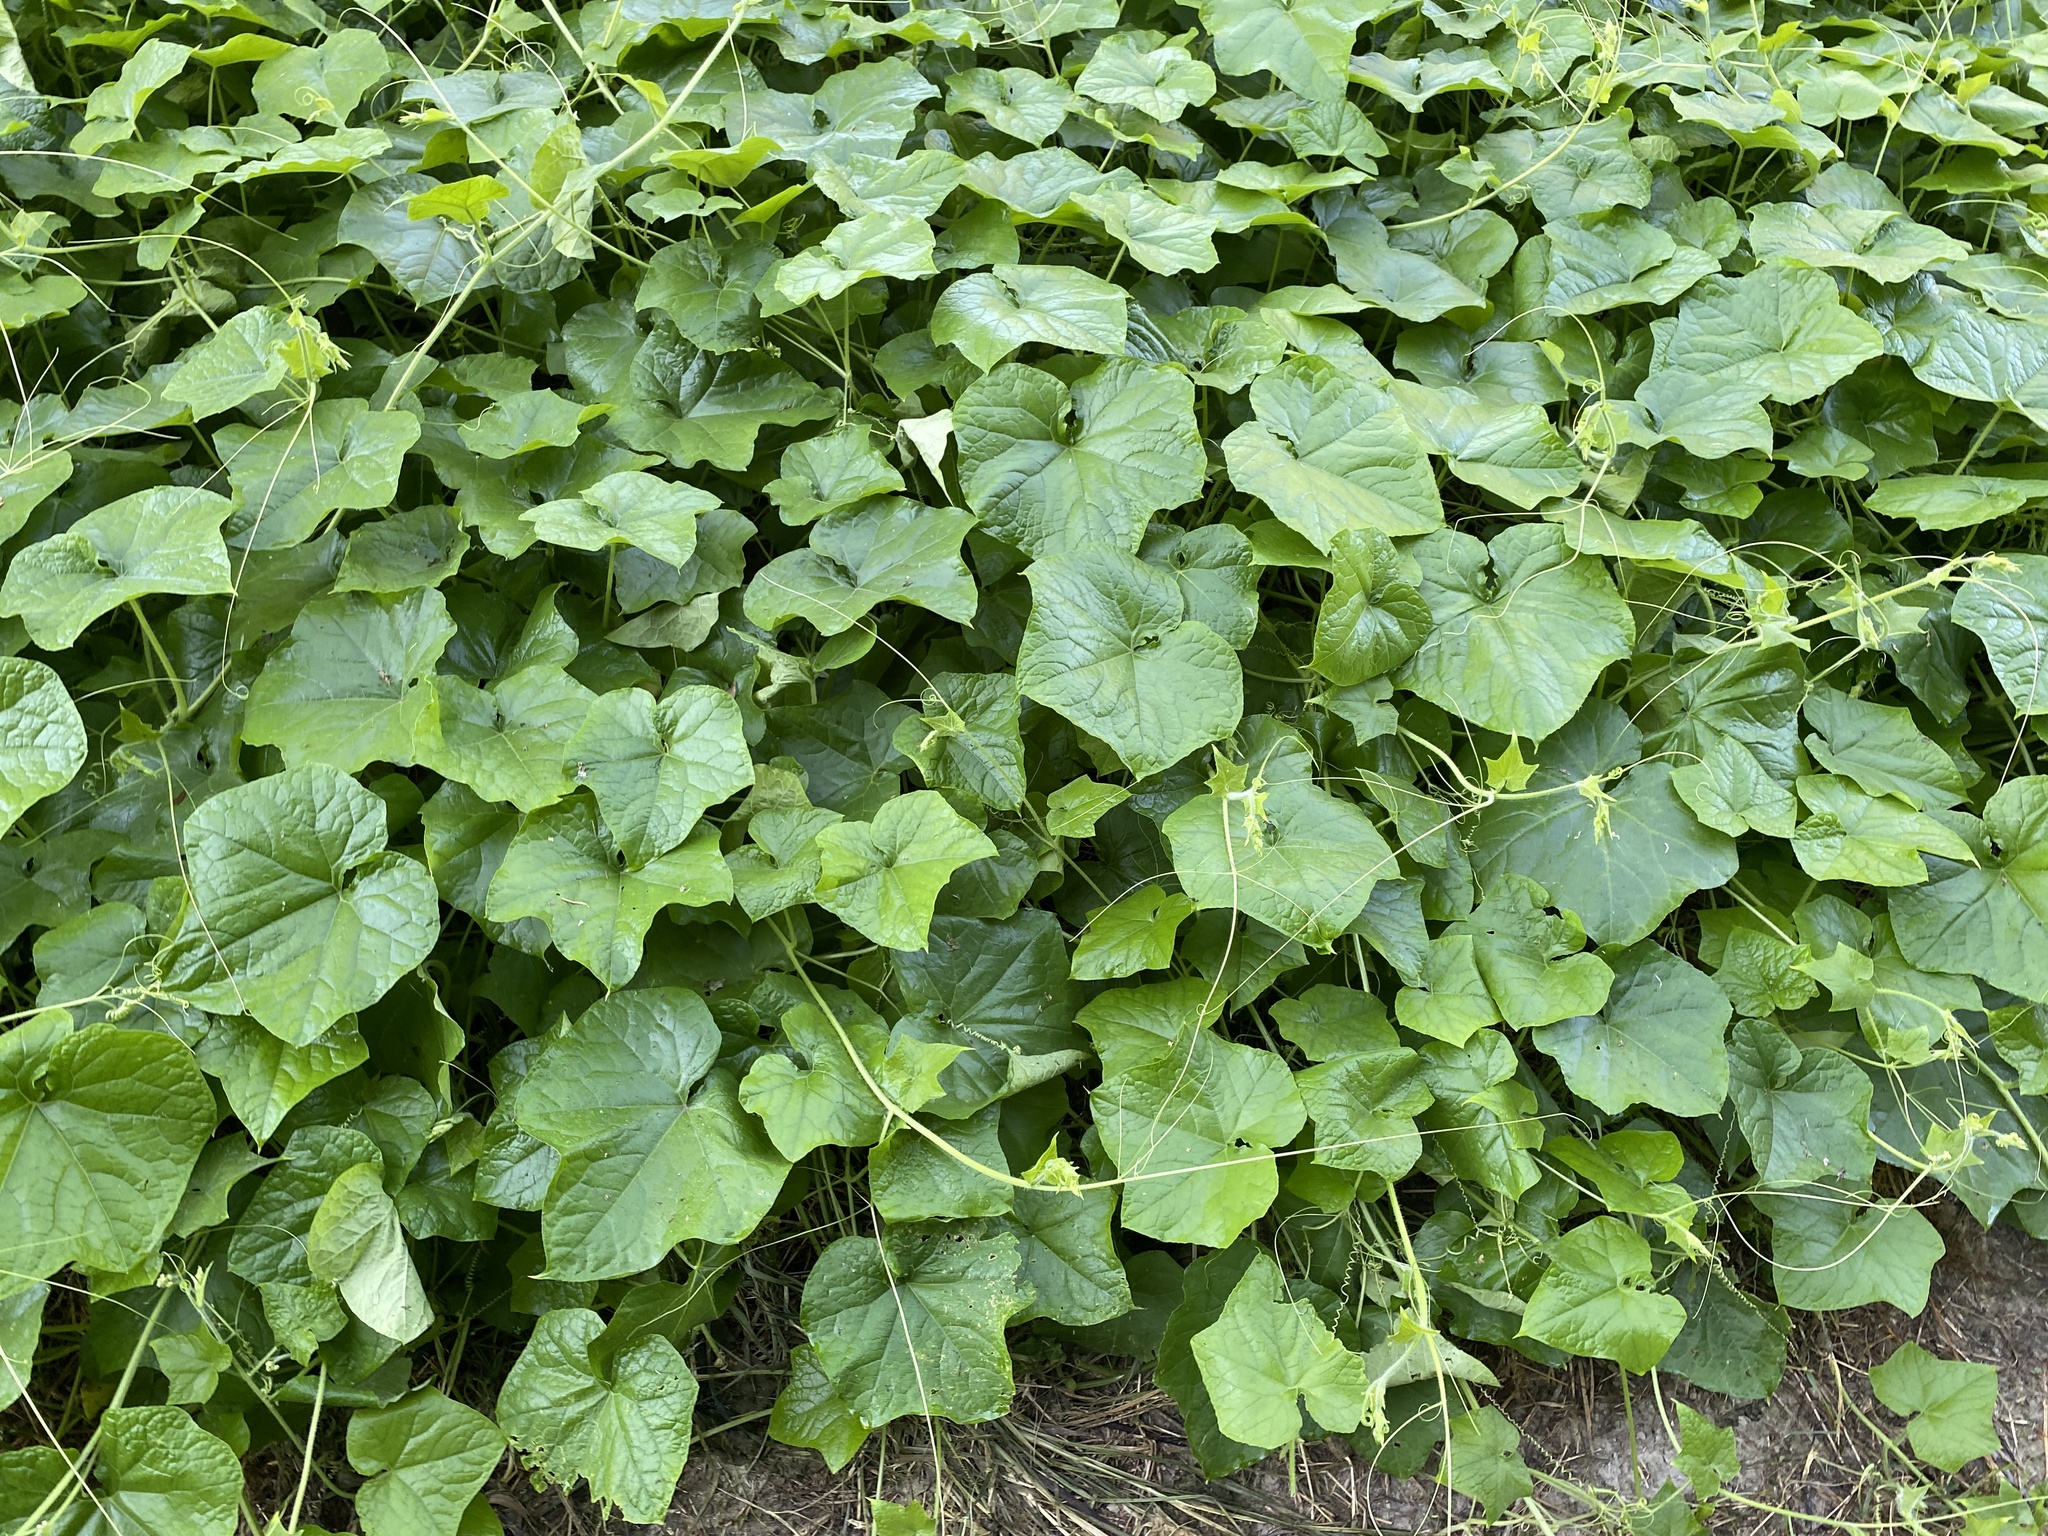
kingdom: Plantae
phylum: Tracheophyta
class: Magnoliopsida
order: Cucurbitales
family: Cucurbitaceae
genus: Sicyos
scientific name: Sicyos angulatus
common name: Angled burr cucumber
